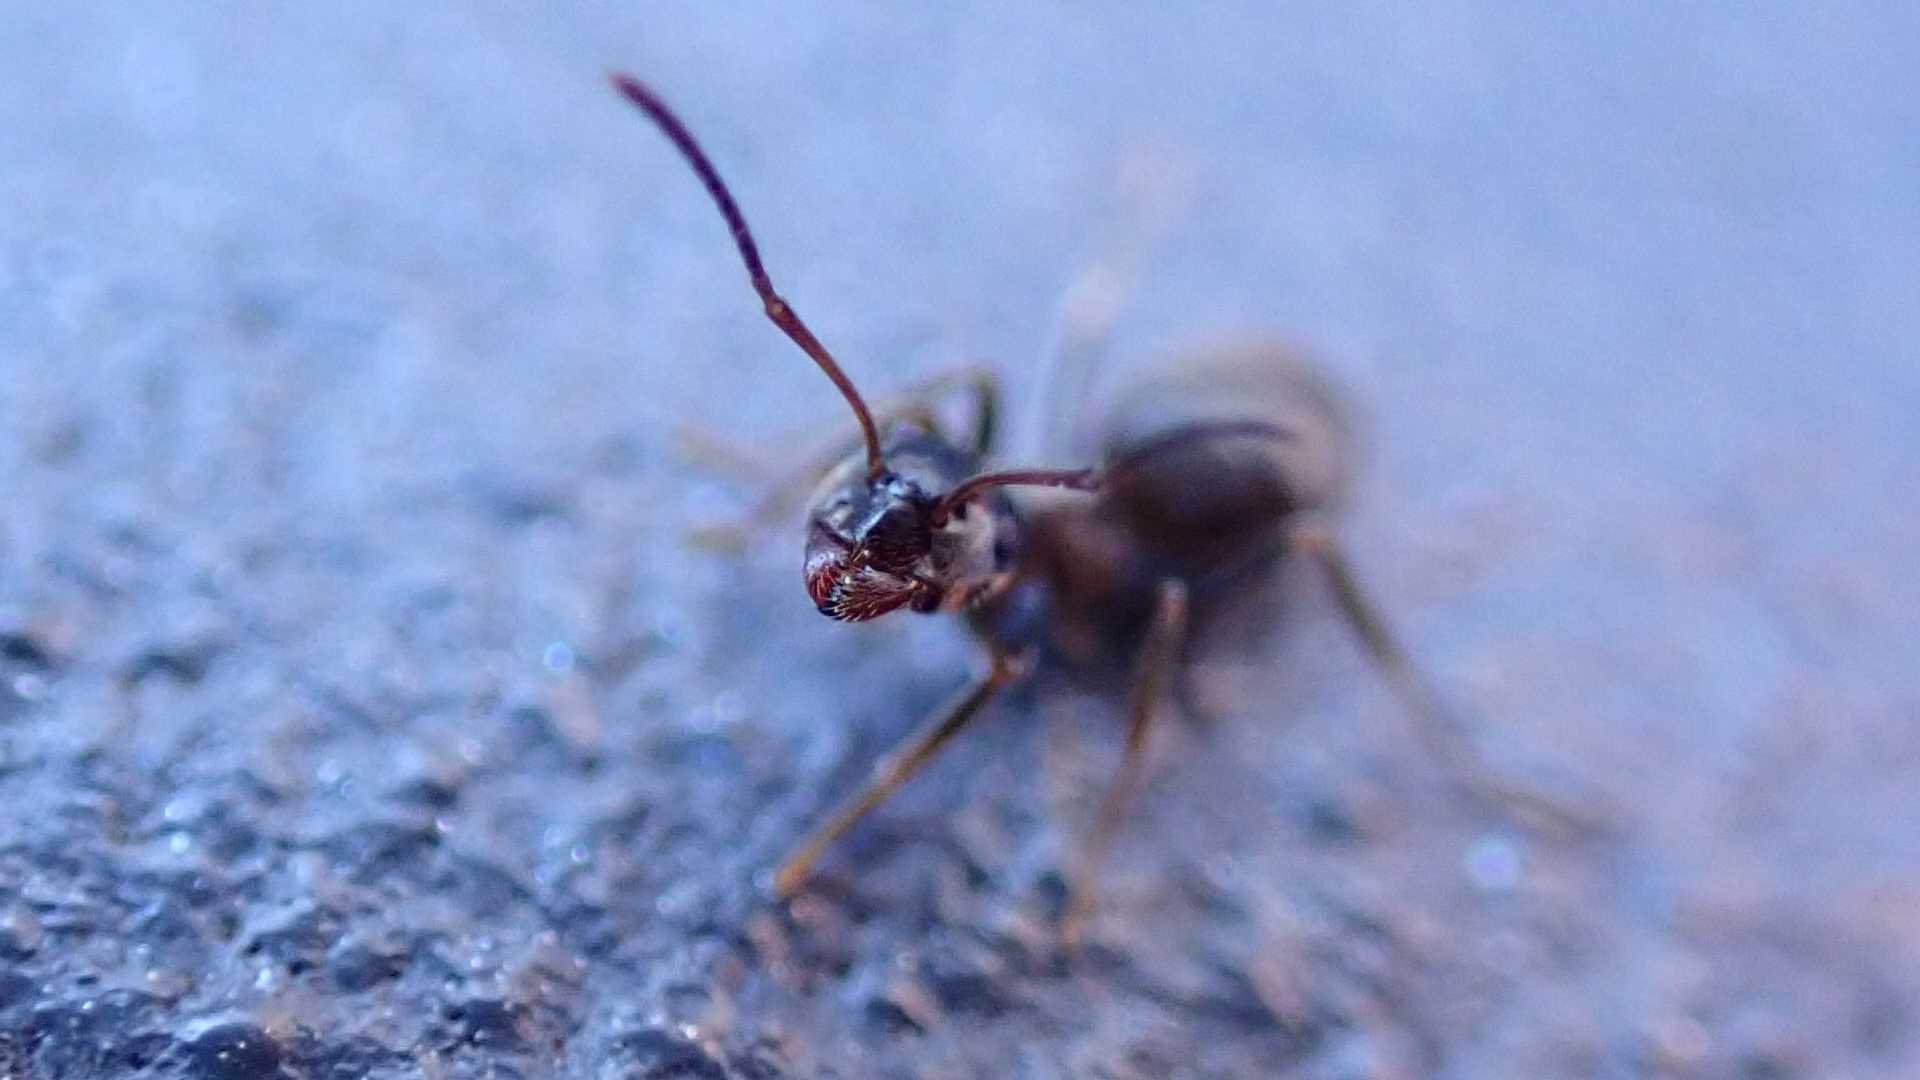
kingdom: Animalia
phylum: Arthropoda
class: Insecta
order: Hymenoptera
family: Formicidae
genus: Lasius
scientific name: Lasius
